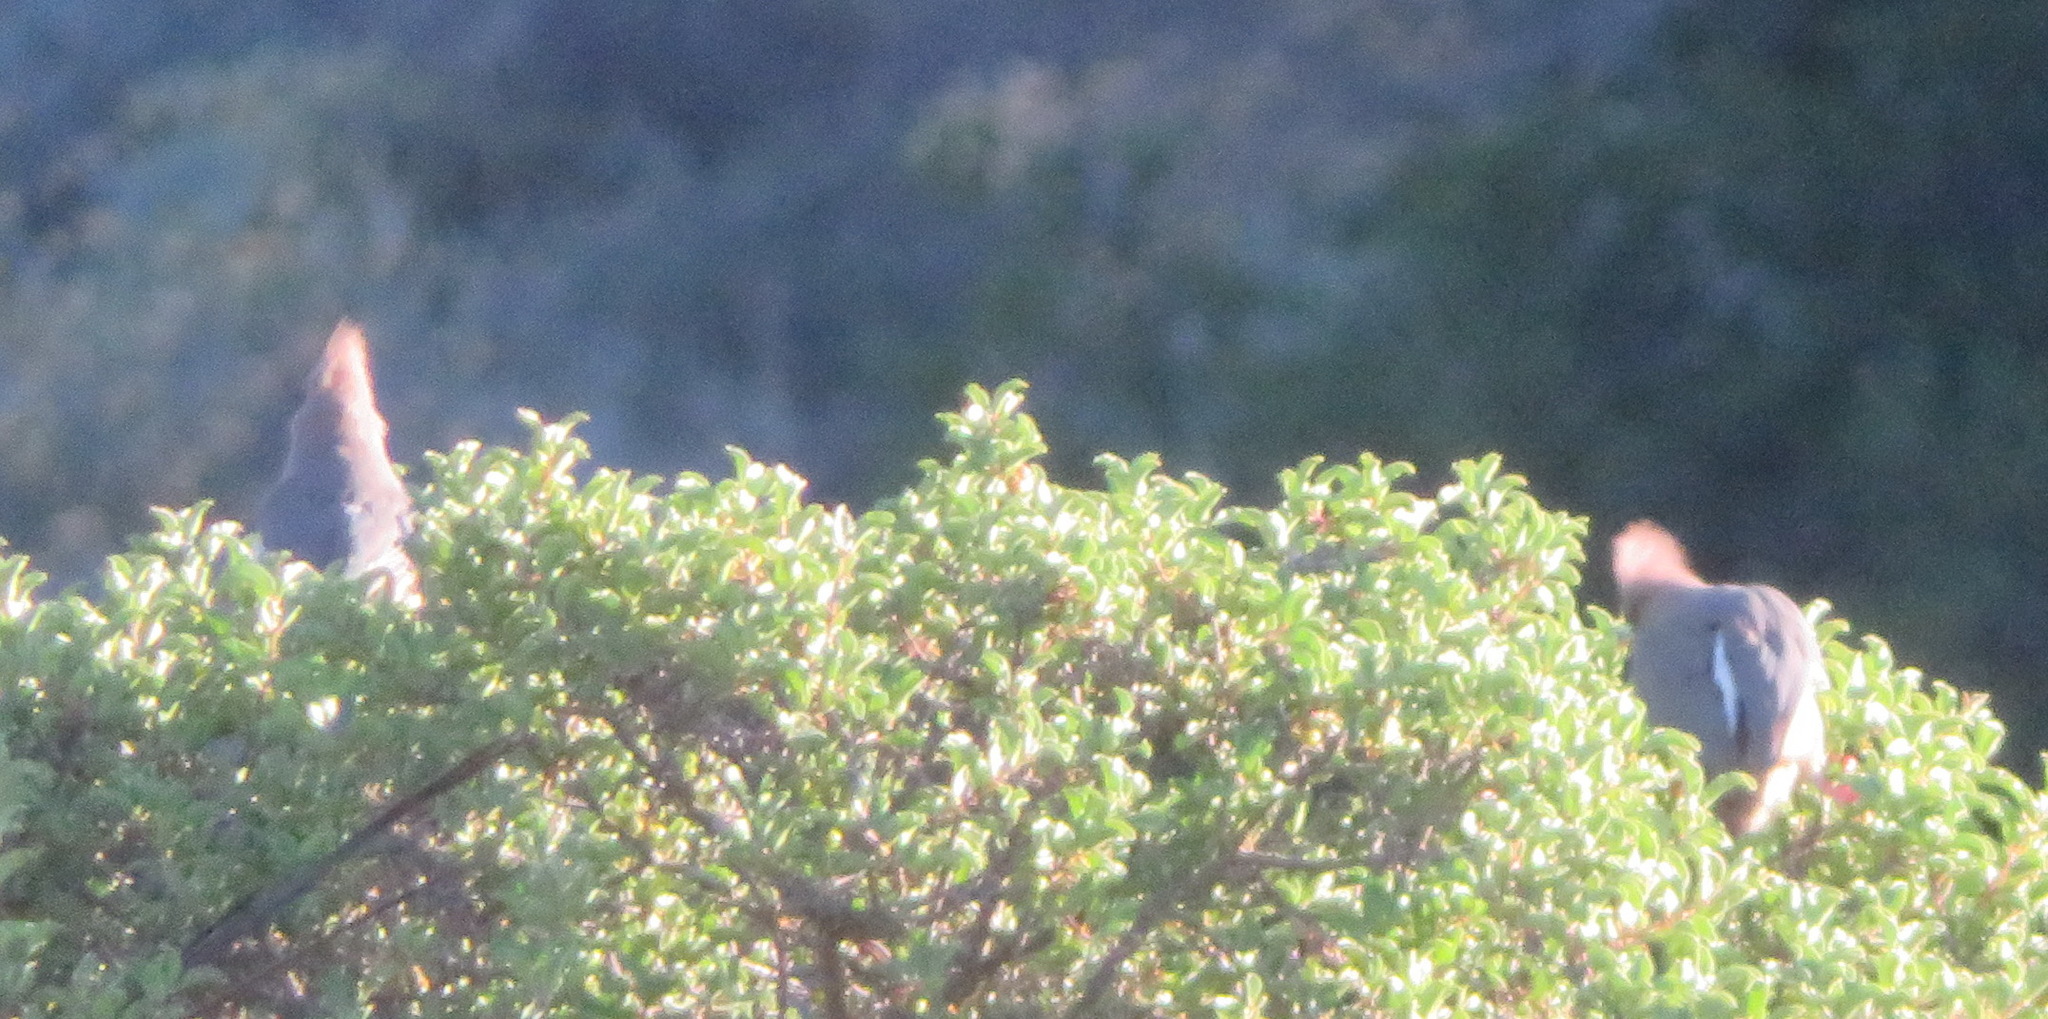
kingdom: Animalia
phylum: Chordata
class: Aves
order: Coliiformes
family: Coliidae
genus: Colius
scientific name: Colius colius
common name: White-backed mousebird
